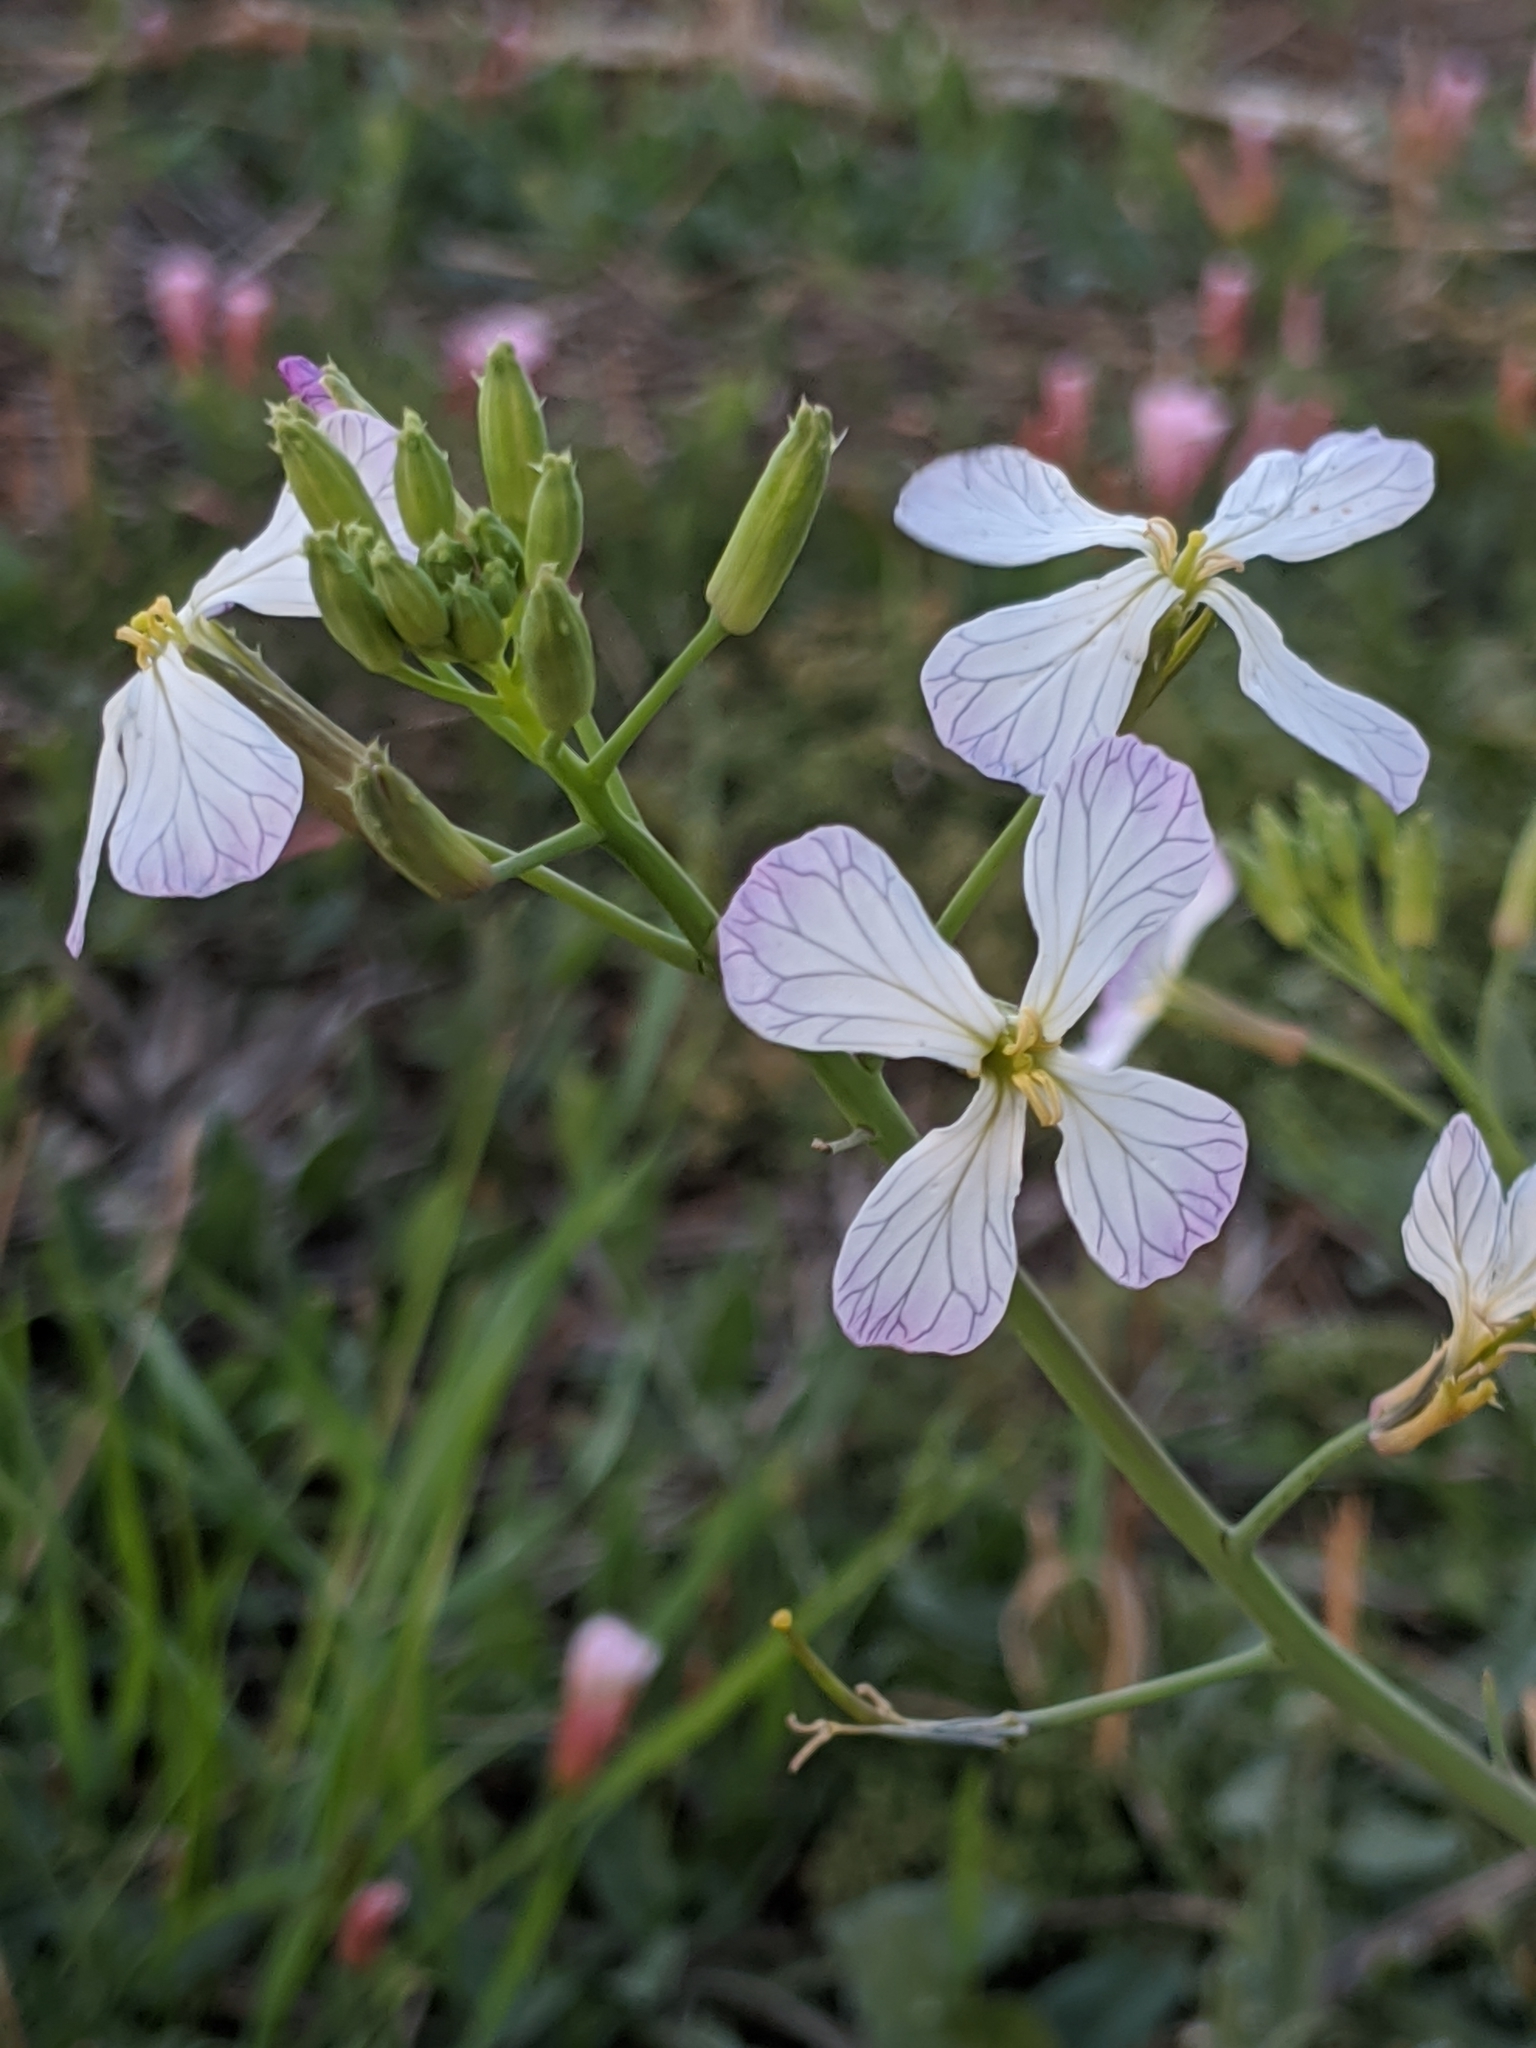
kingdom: Plantae
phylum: Tracheophyta
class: Magnoliopsida
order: Brassicales
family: Brassicaceae
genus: Raphanus
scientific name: Raphanus sativus
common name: Cultivated radish
